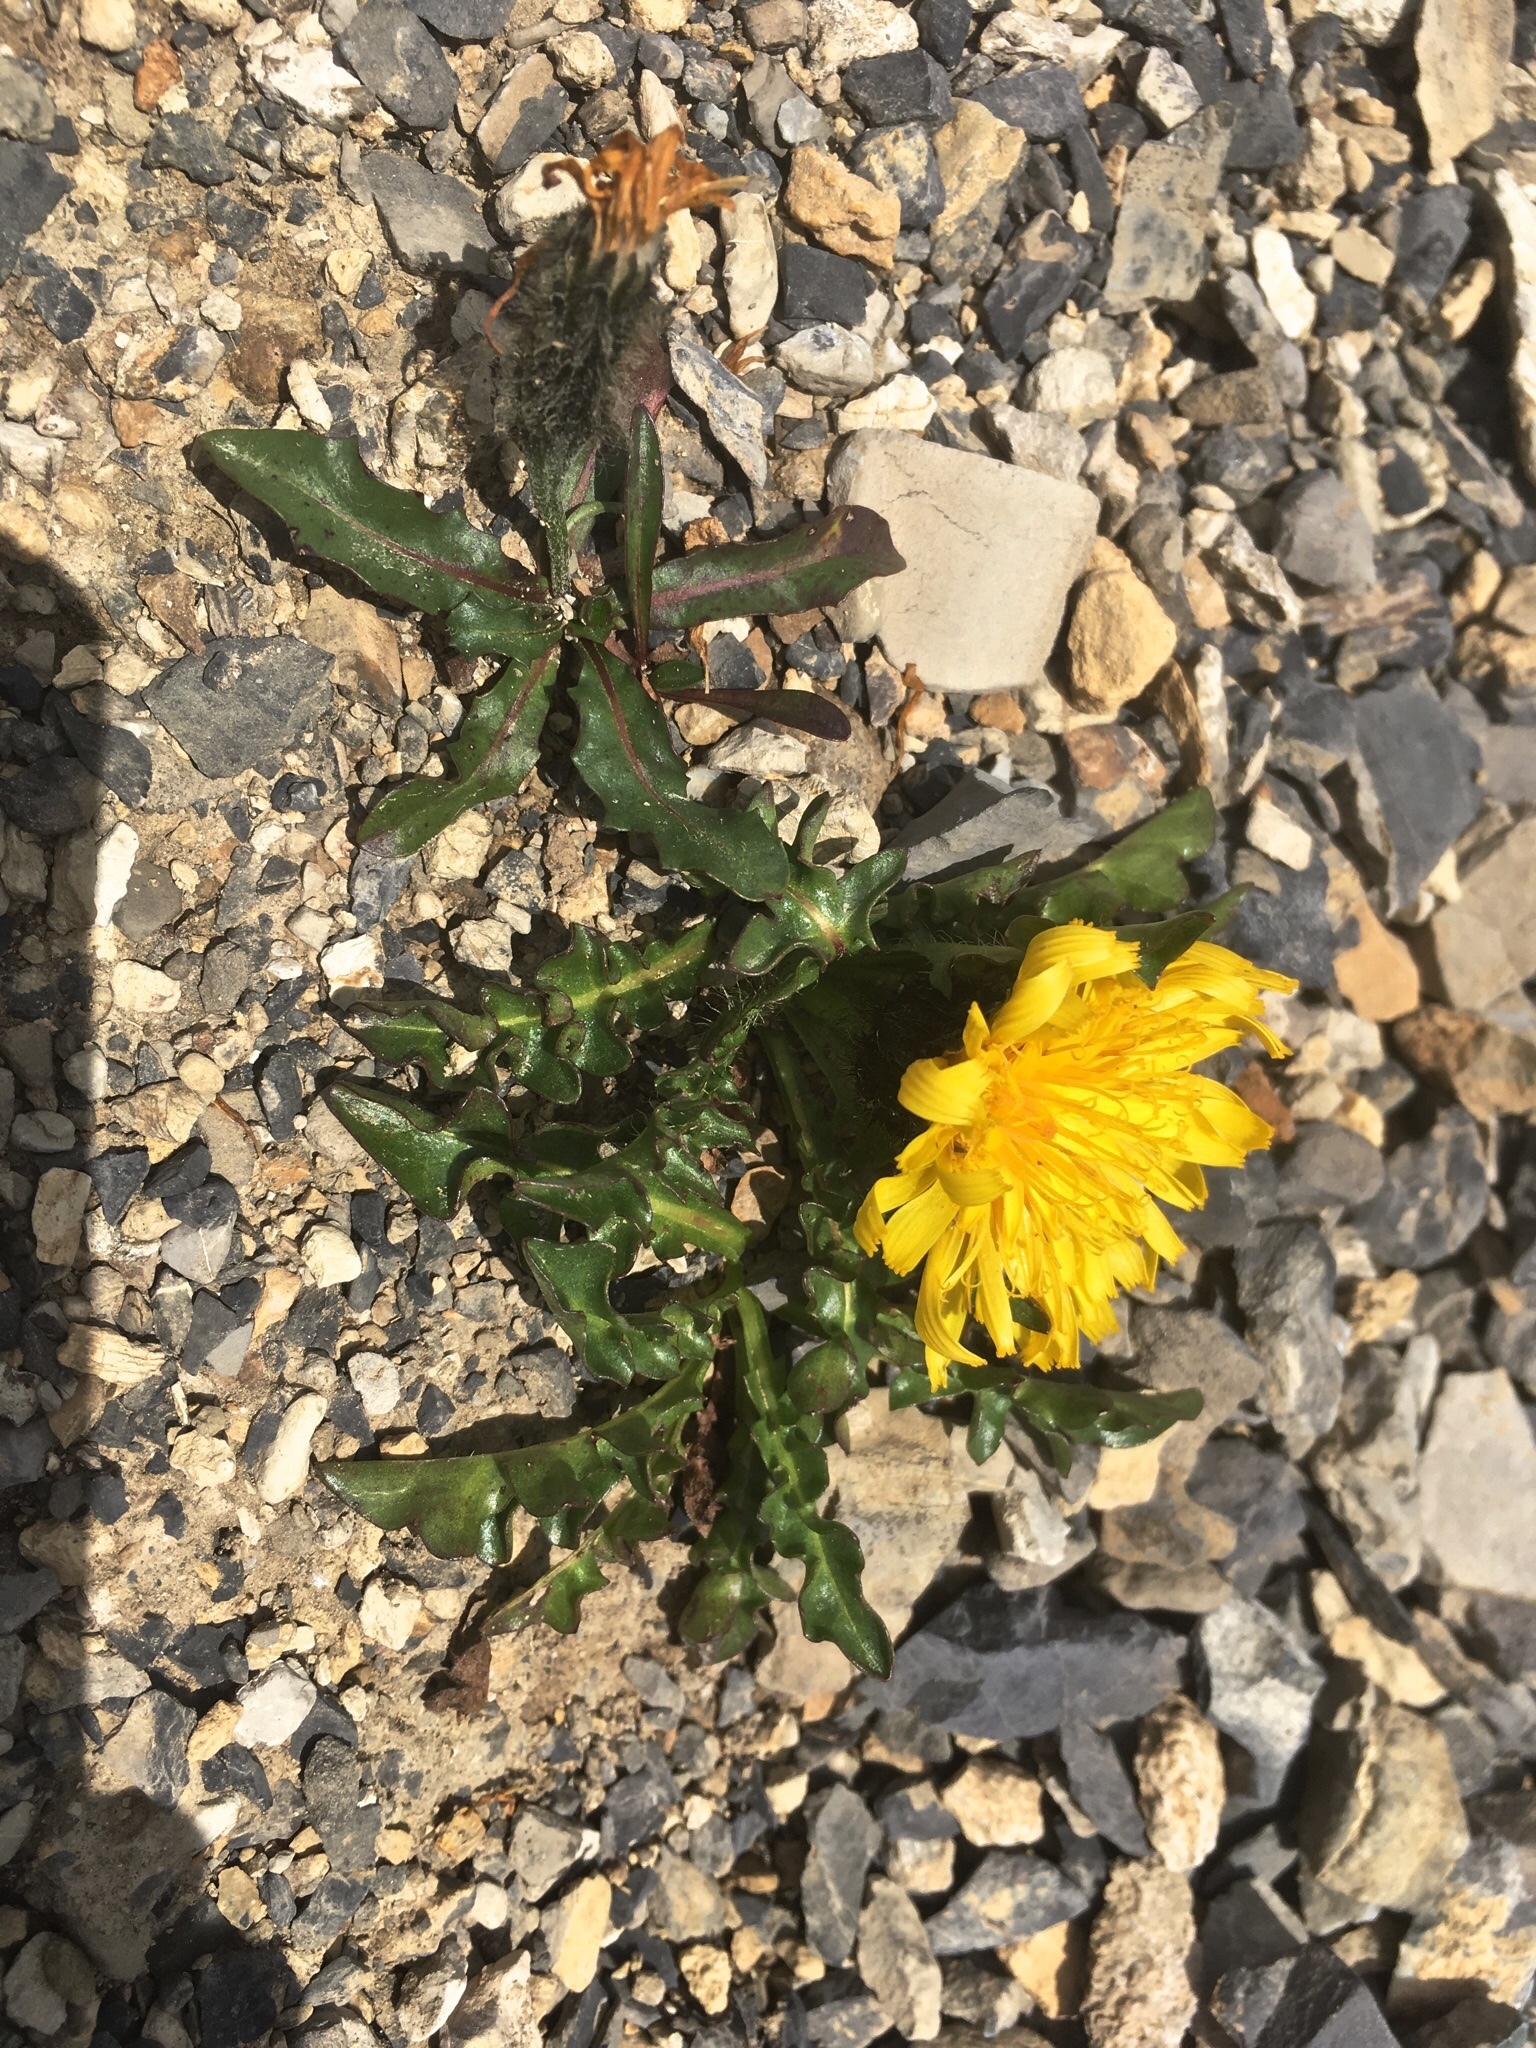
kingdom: Plantae
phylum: Tracheophyta
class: Magnoliopsida
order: Asterales
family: Asteraceae
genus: Crepis
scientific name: Crepis terglouensis
